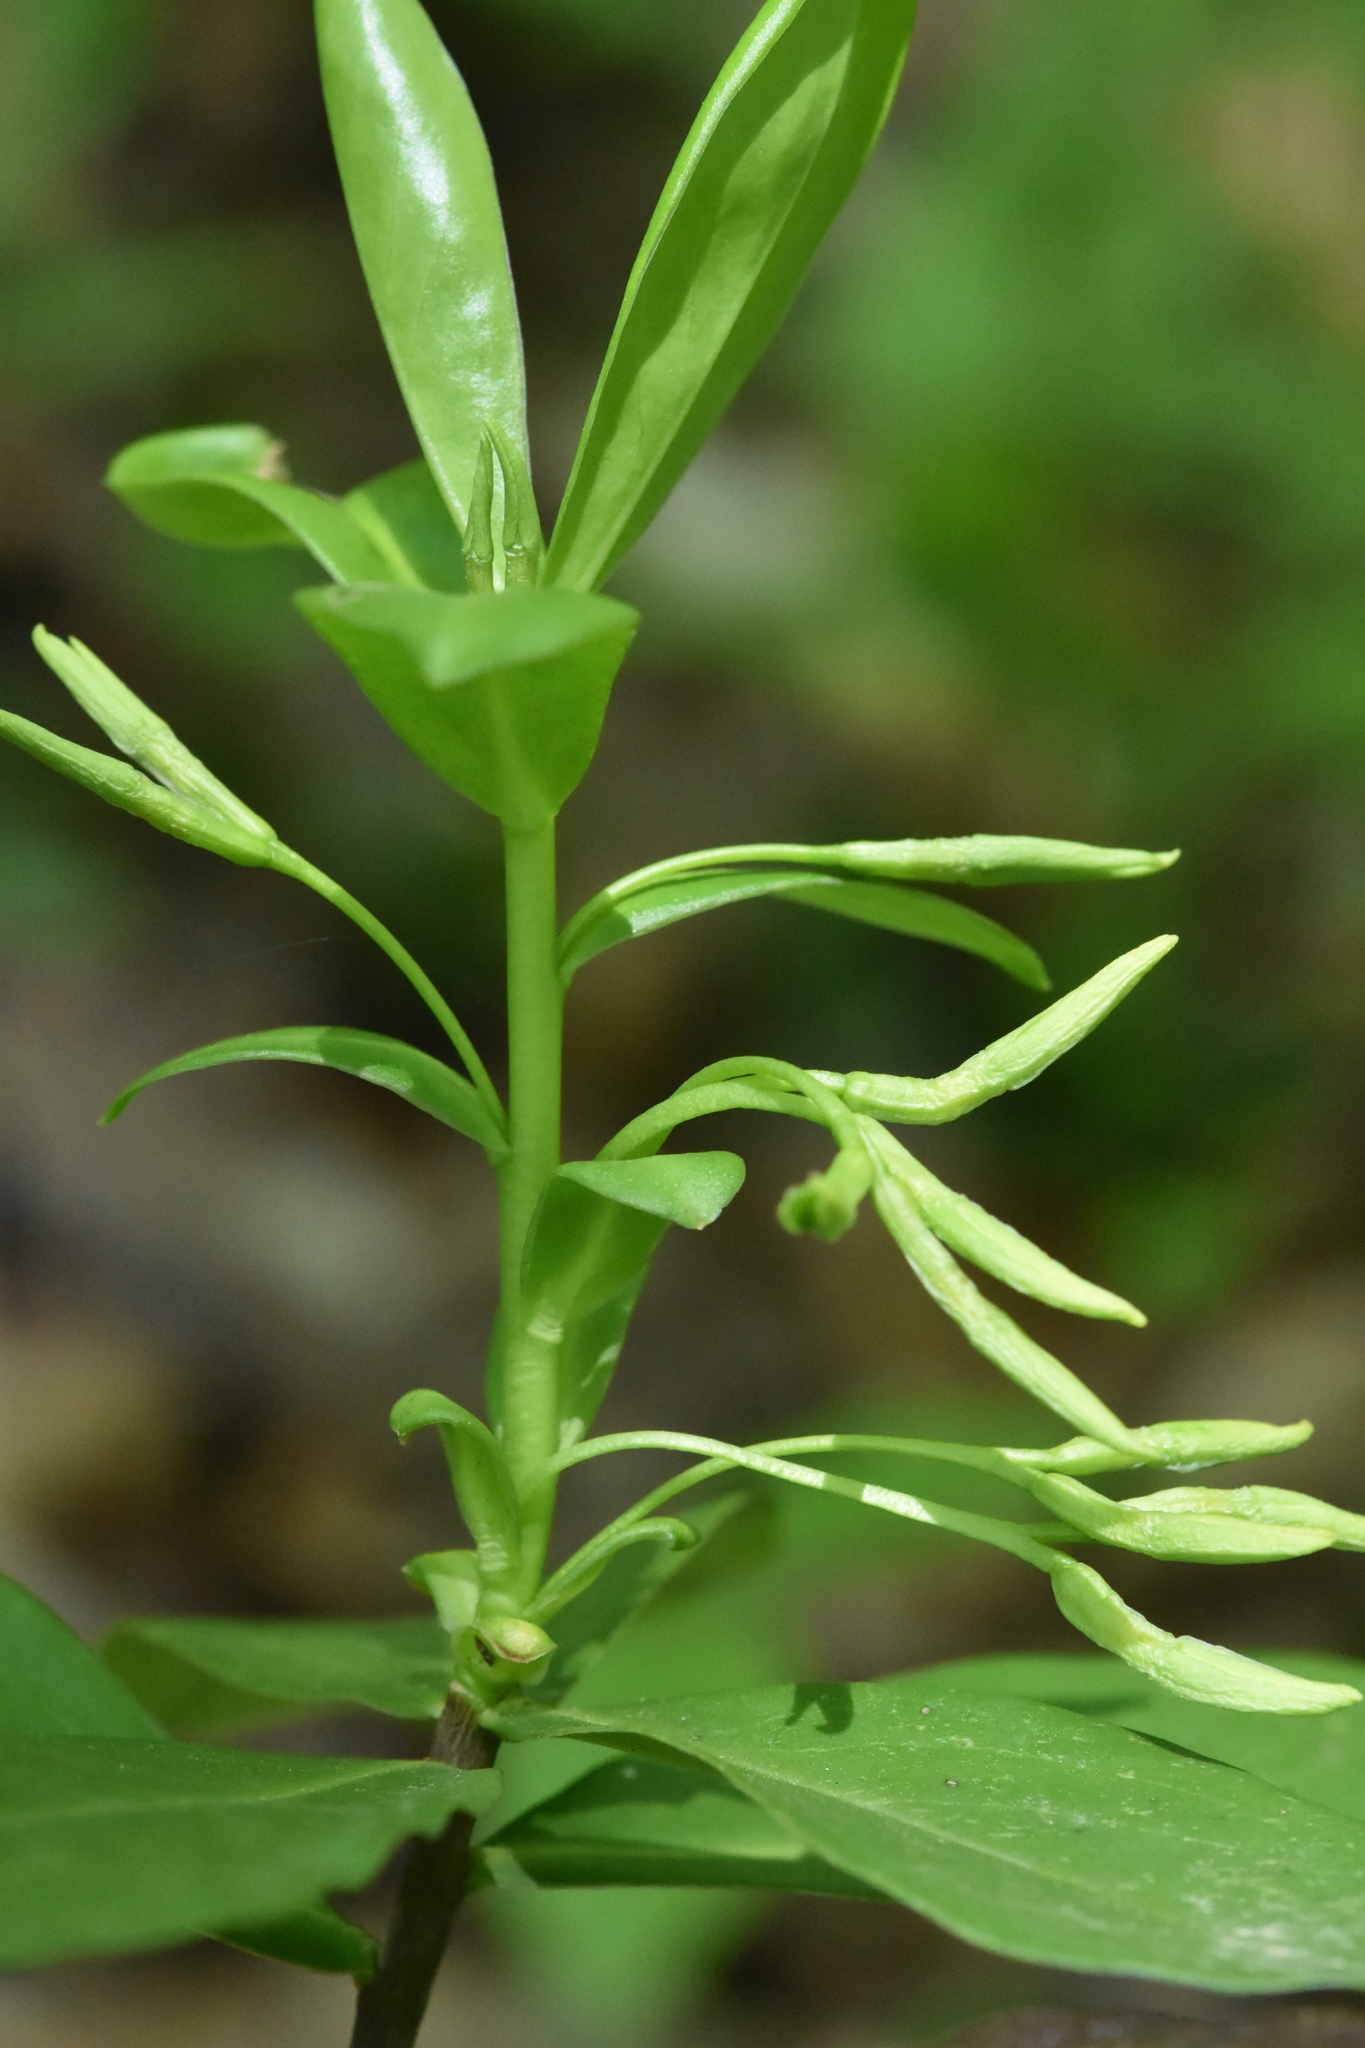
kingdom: Plantae
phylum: Tracheophyta
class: Magnoliopsida
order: Malvales
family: Thymelaeaceae
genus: Daphne
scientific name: Daphne pontica
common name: Twin-flower daphne
